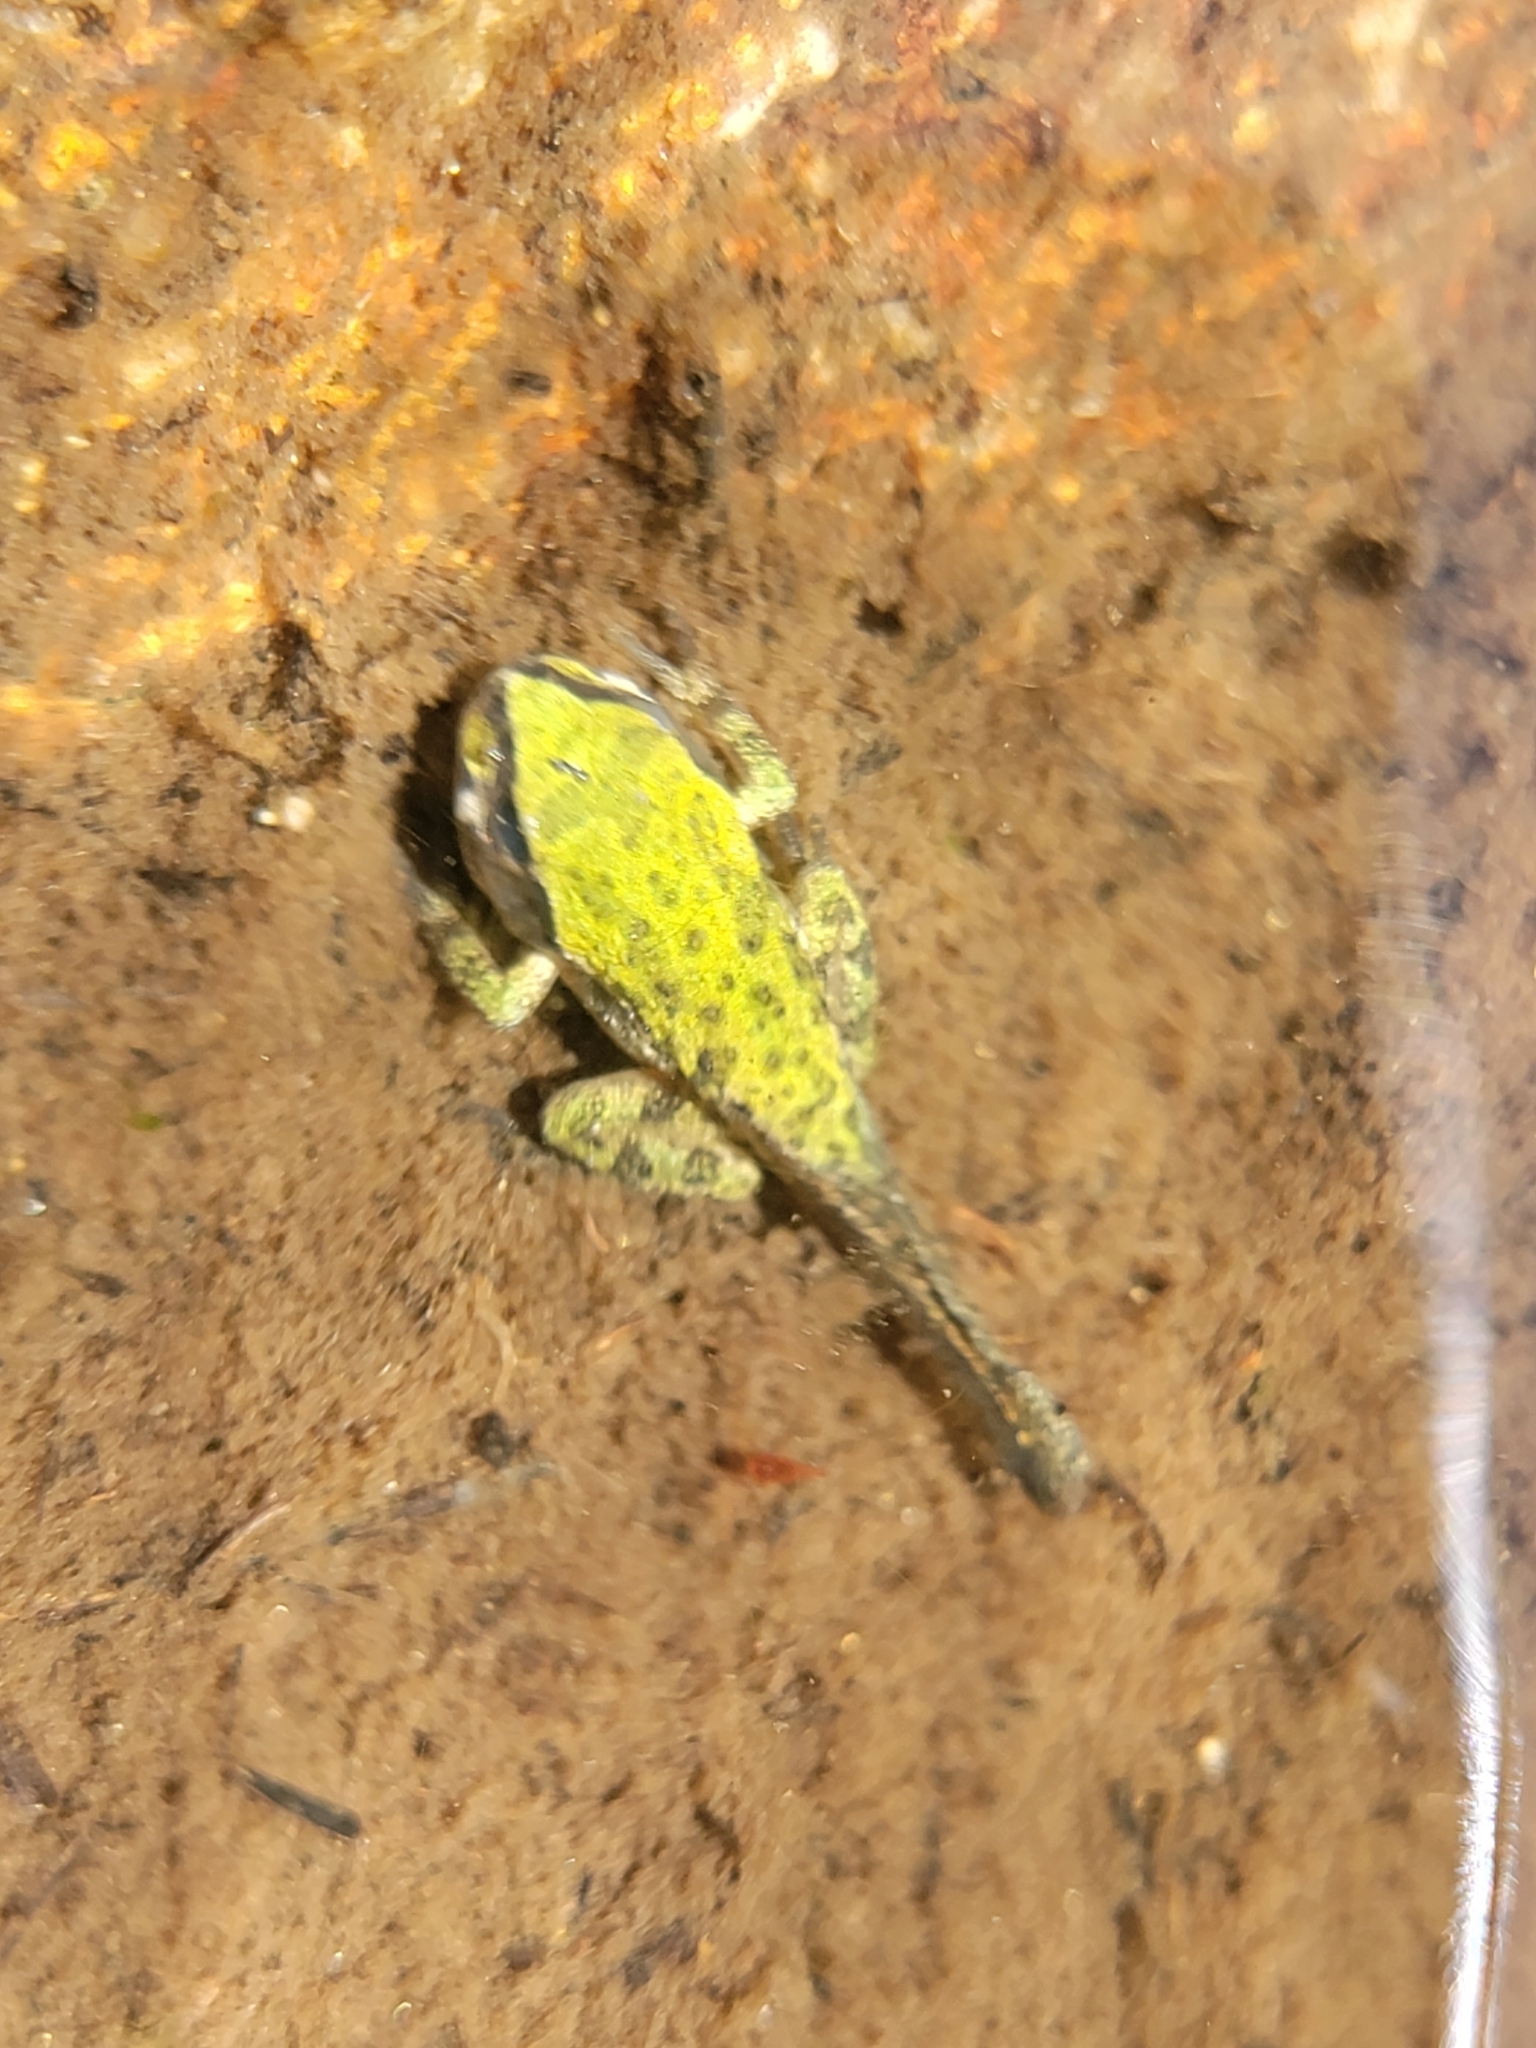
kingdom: Animalia
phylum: Chordata
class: Amphibia
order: Anura
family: Hylidae
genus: Pseudacris
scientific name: Pseudacris regilla
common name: Pacific chorus frog
